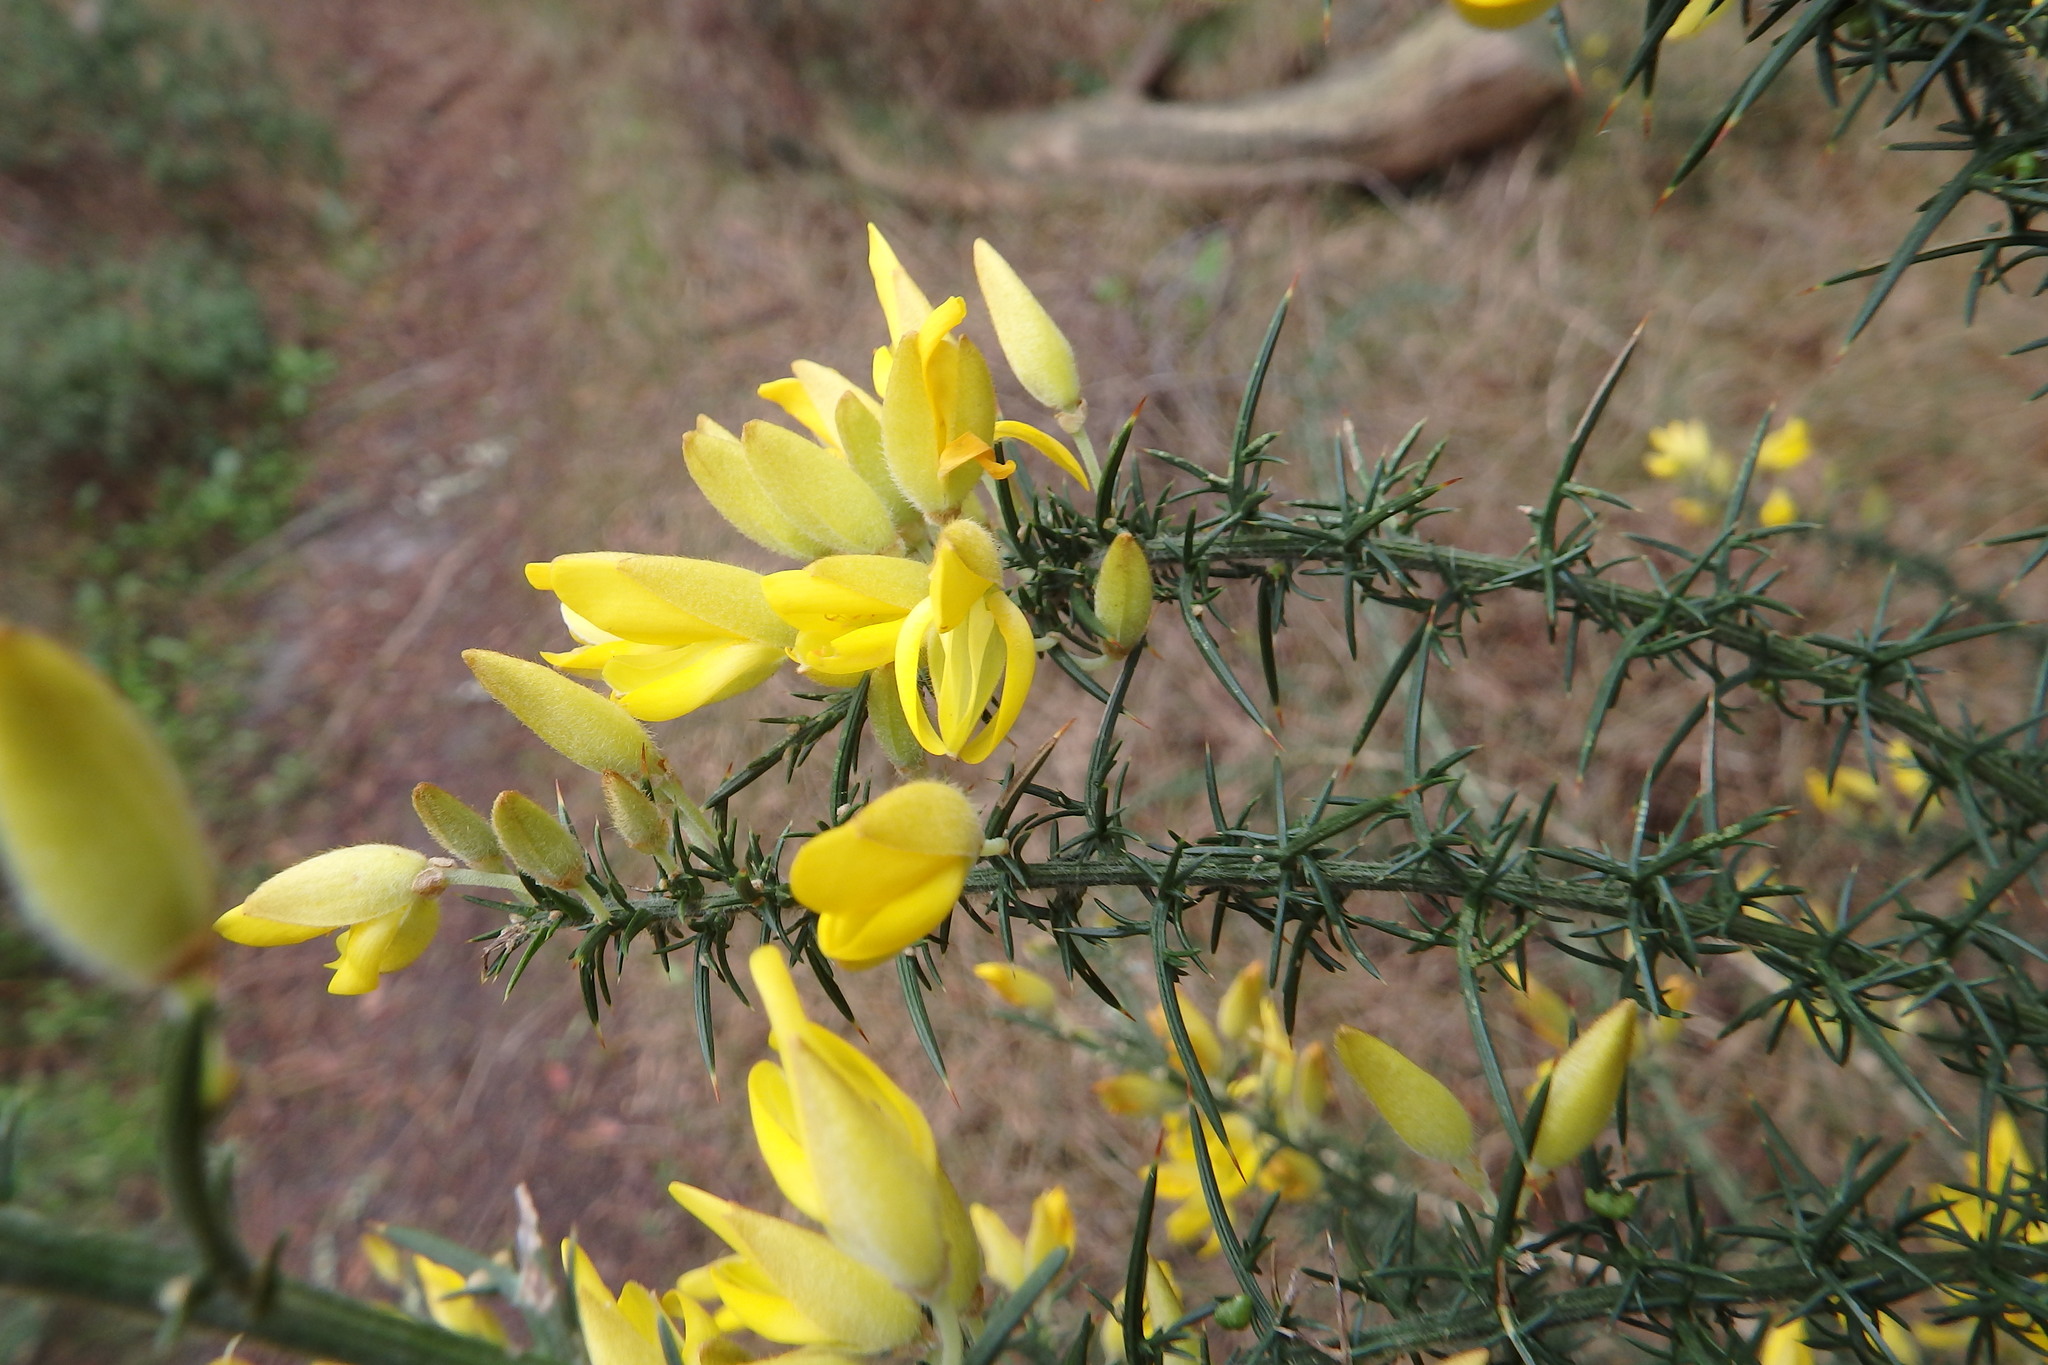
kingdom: Plantae
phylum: Tracheophyta
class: Magnoliopsida
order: Fabales
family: Fabaceae
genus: Ulex
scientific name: Ulex europaeus
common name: Common gorse
